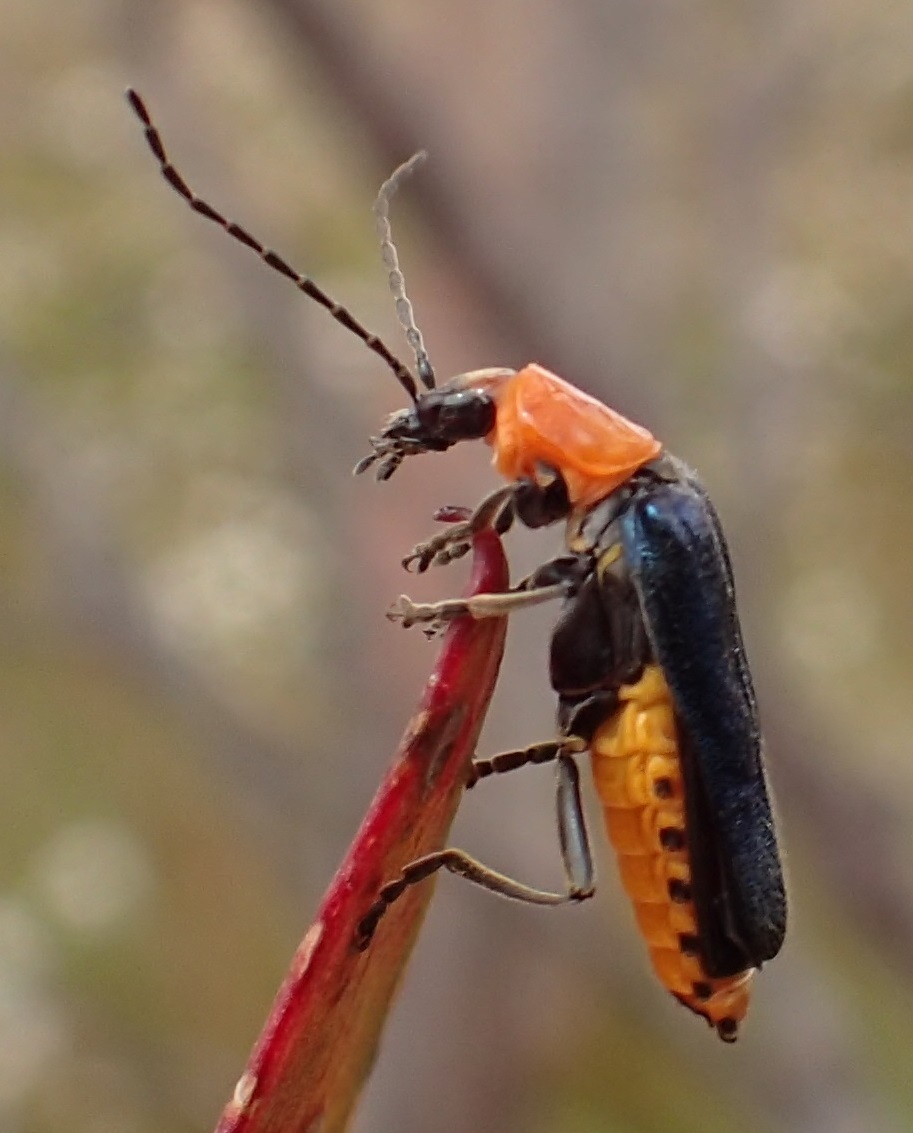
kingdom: Animalia
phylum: Arthropoda
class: Insecta
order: Coleoptera
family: Cantharidae
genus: Chauliognathus
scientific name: Chauliognathus
